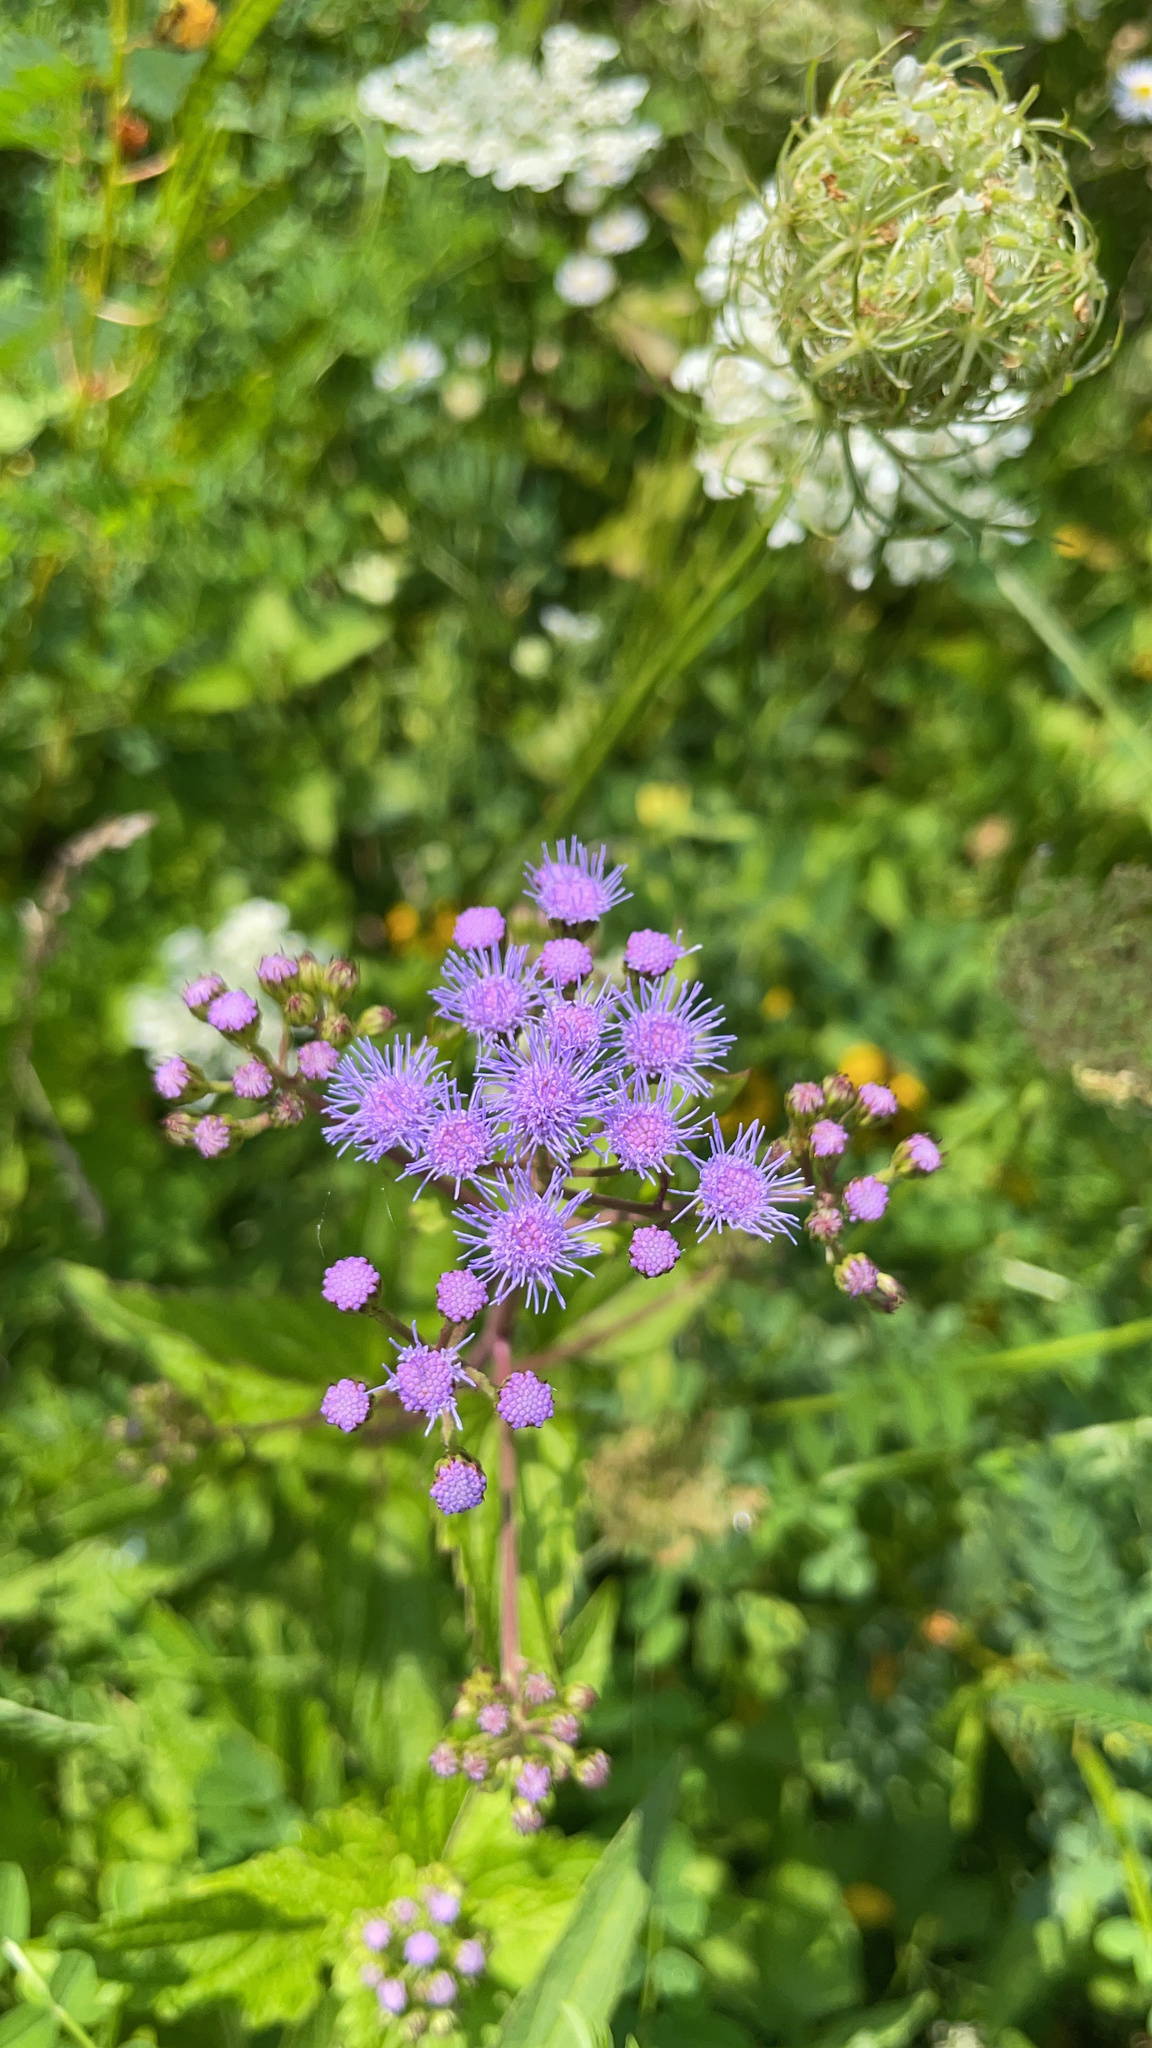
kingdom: Plantae
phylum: Tracheophyta
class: Magnoliopsida
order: Asterales
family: Asteraceae
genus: Conoclinium
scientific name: Conoclinium coelestinum
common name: Blue mistflower
